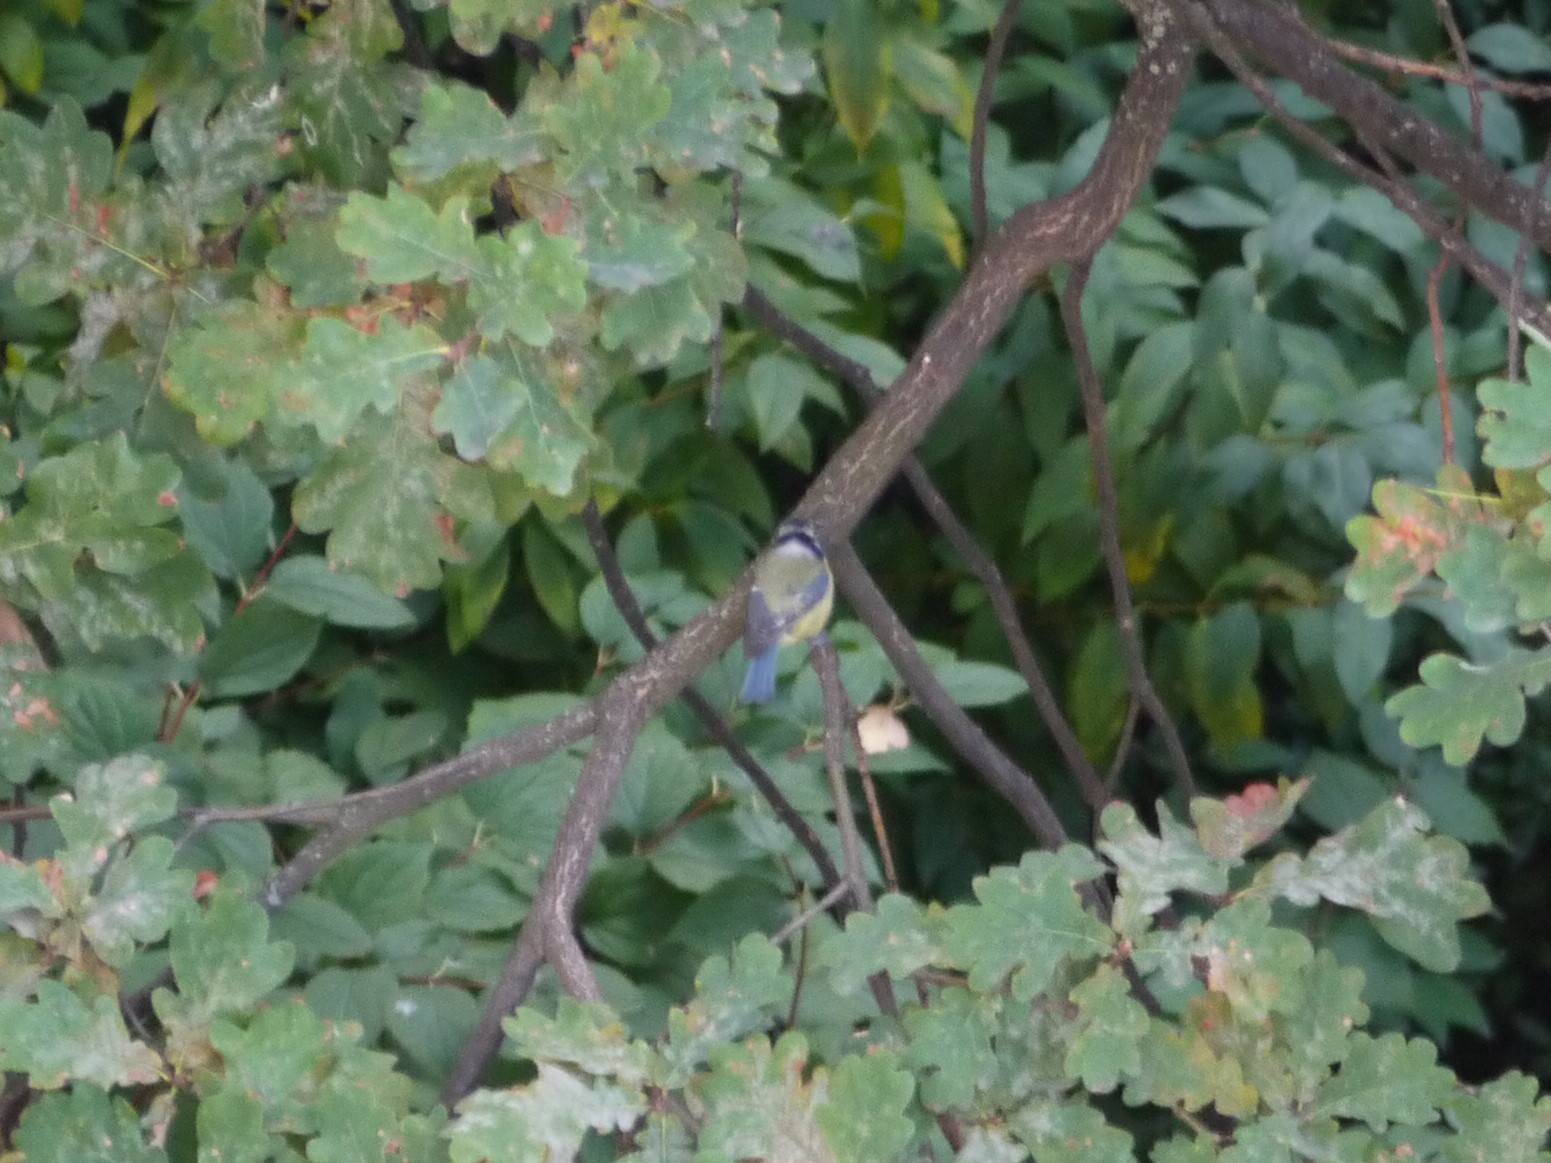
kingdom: Animalia
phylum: Chordata
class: Aves
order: Passeriformes
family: Paridae
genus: Cyanistes
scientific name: Cyanistes caeruleus
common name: Eurasian blue tit
